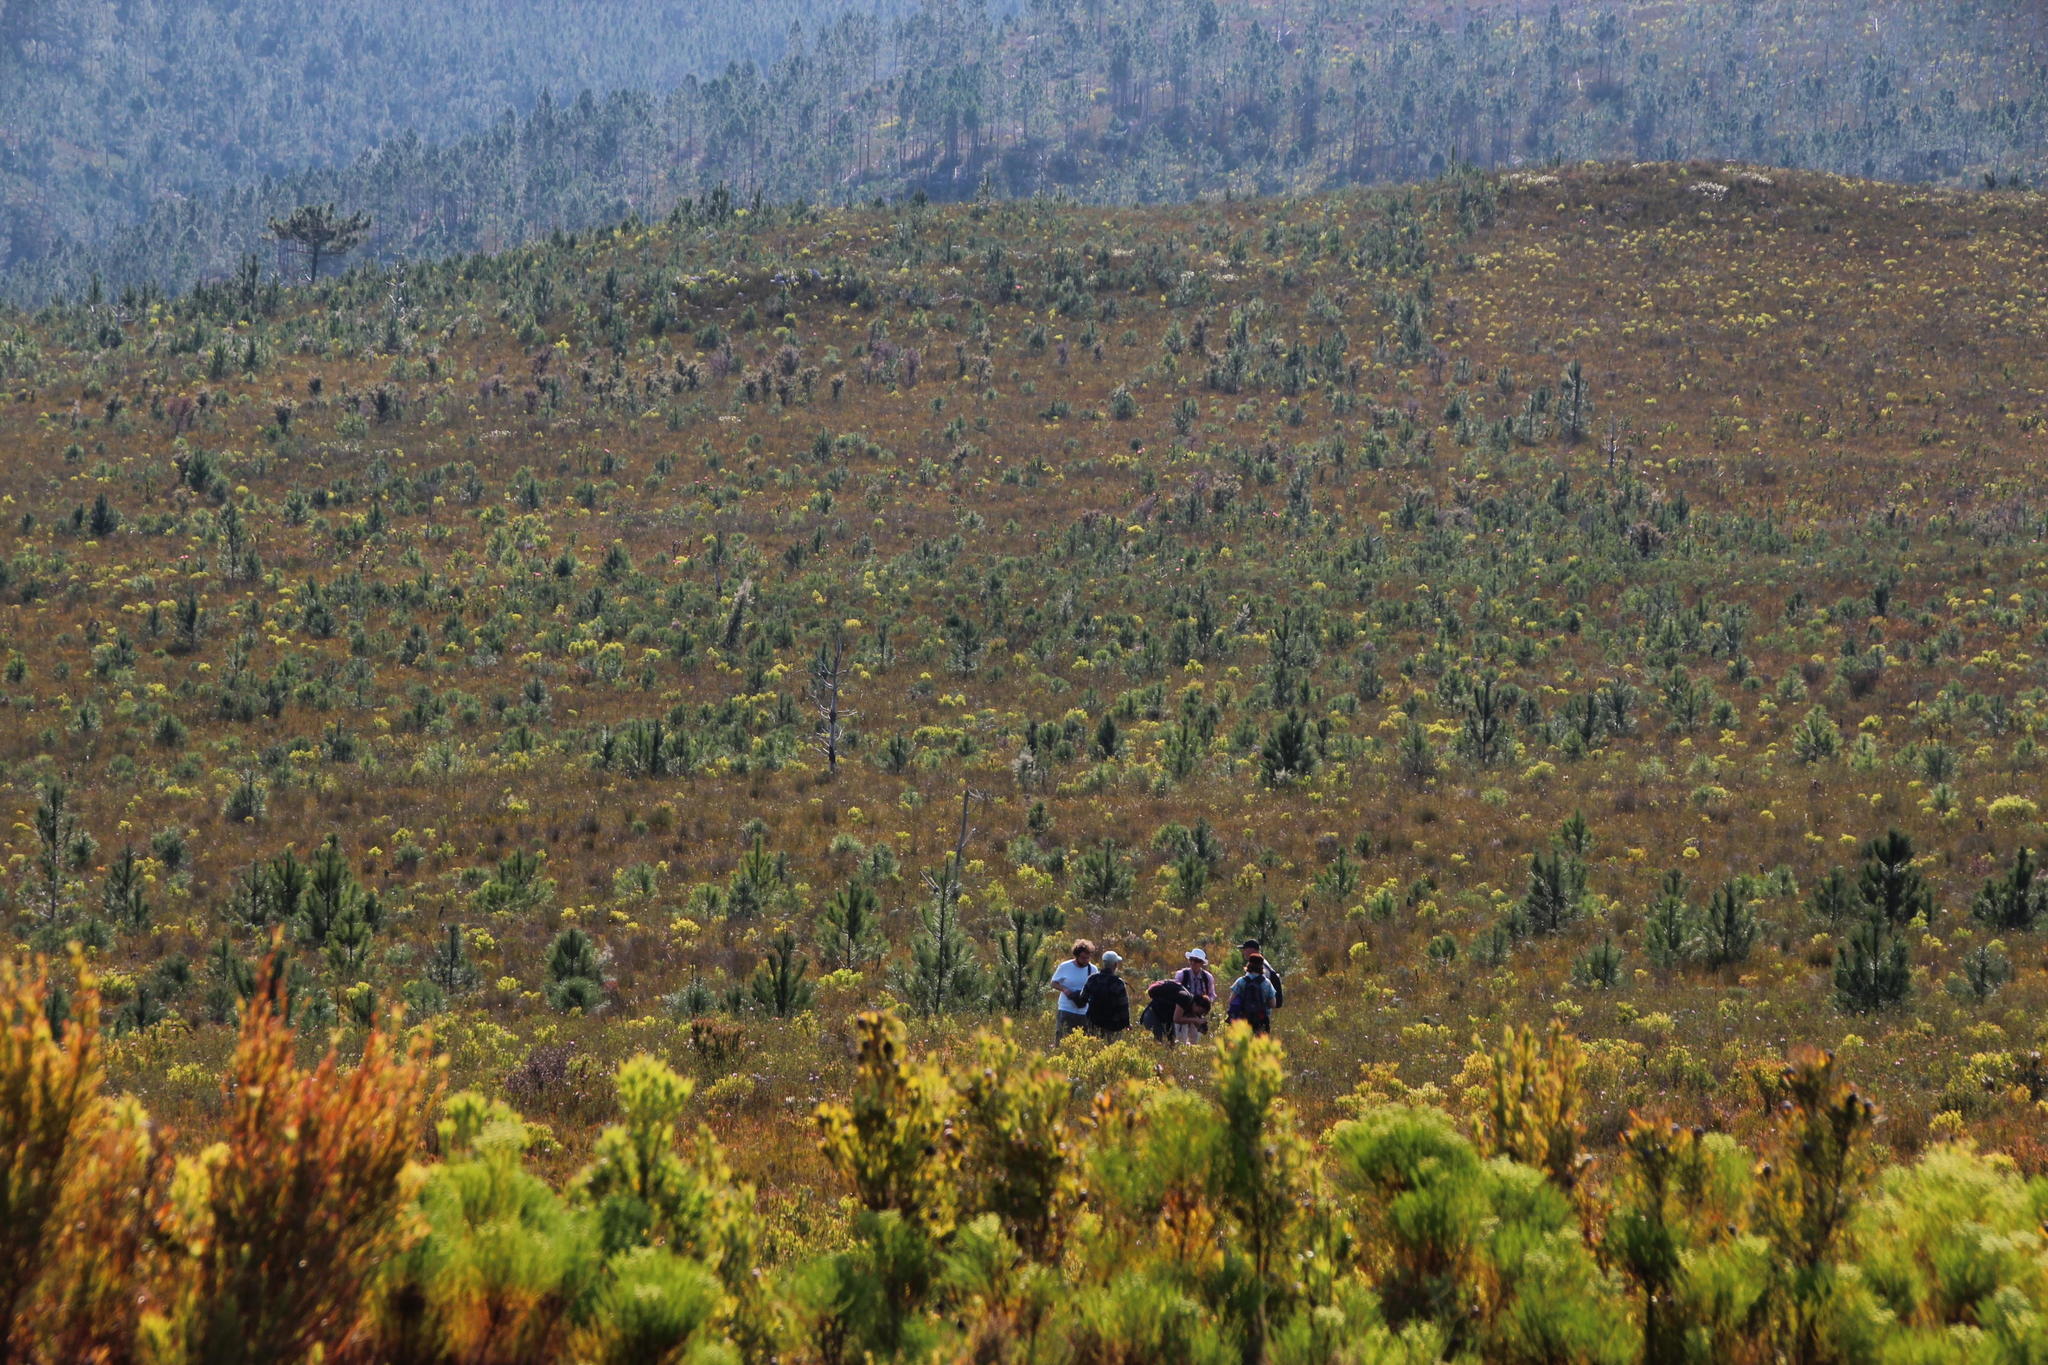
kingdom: Plantae
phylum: Tracheophyta
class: Pinopsida
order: Pinales
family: Pinaceae
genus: Pinus
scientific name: Pinus pinaster
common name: Maritime pine
